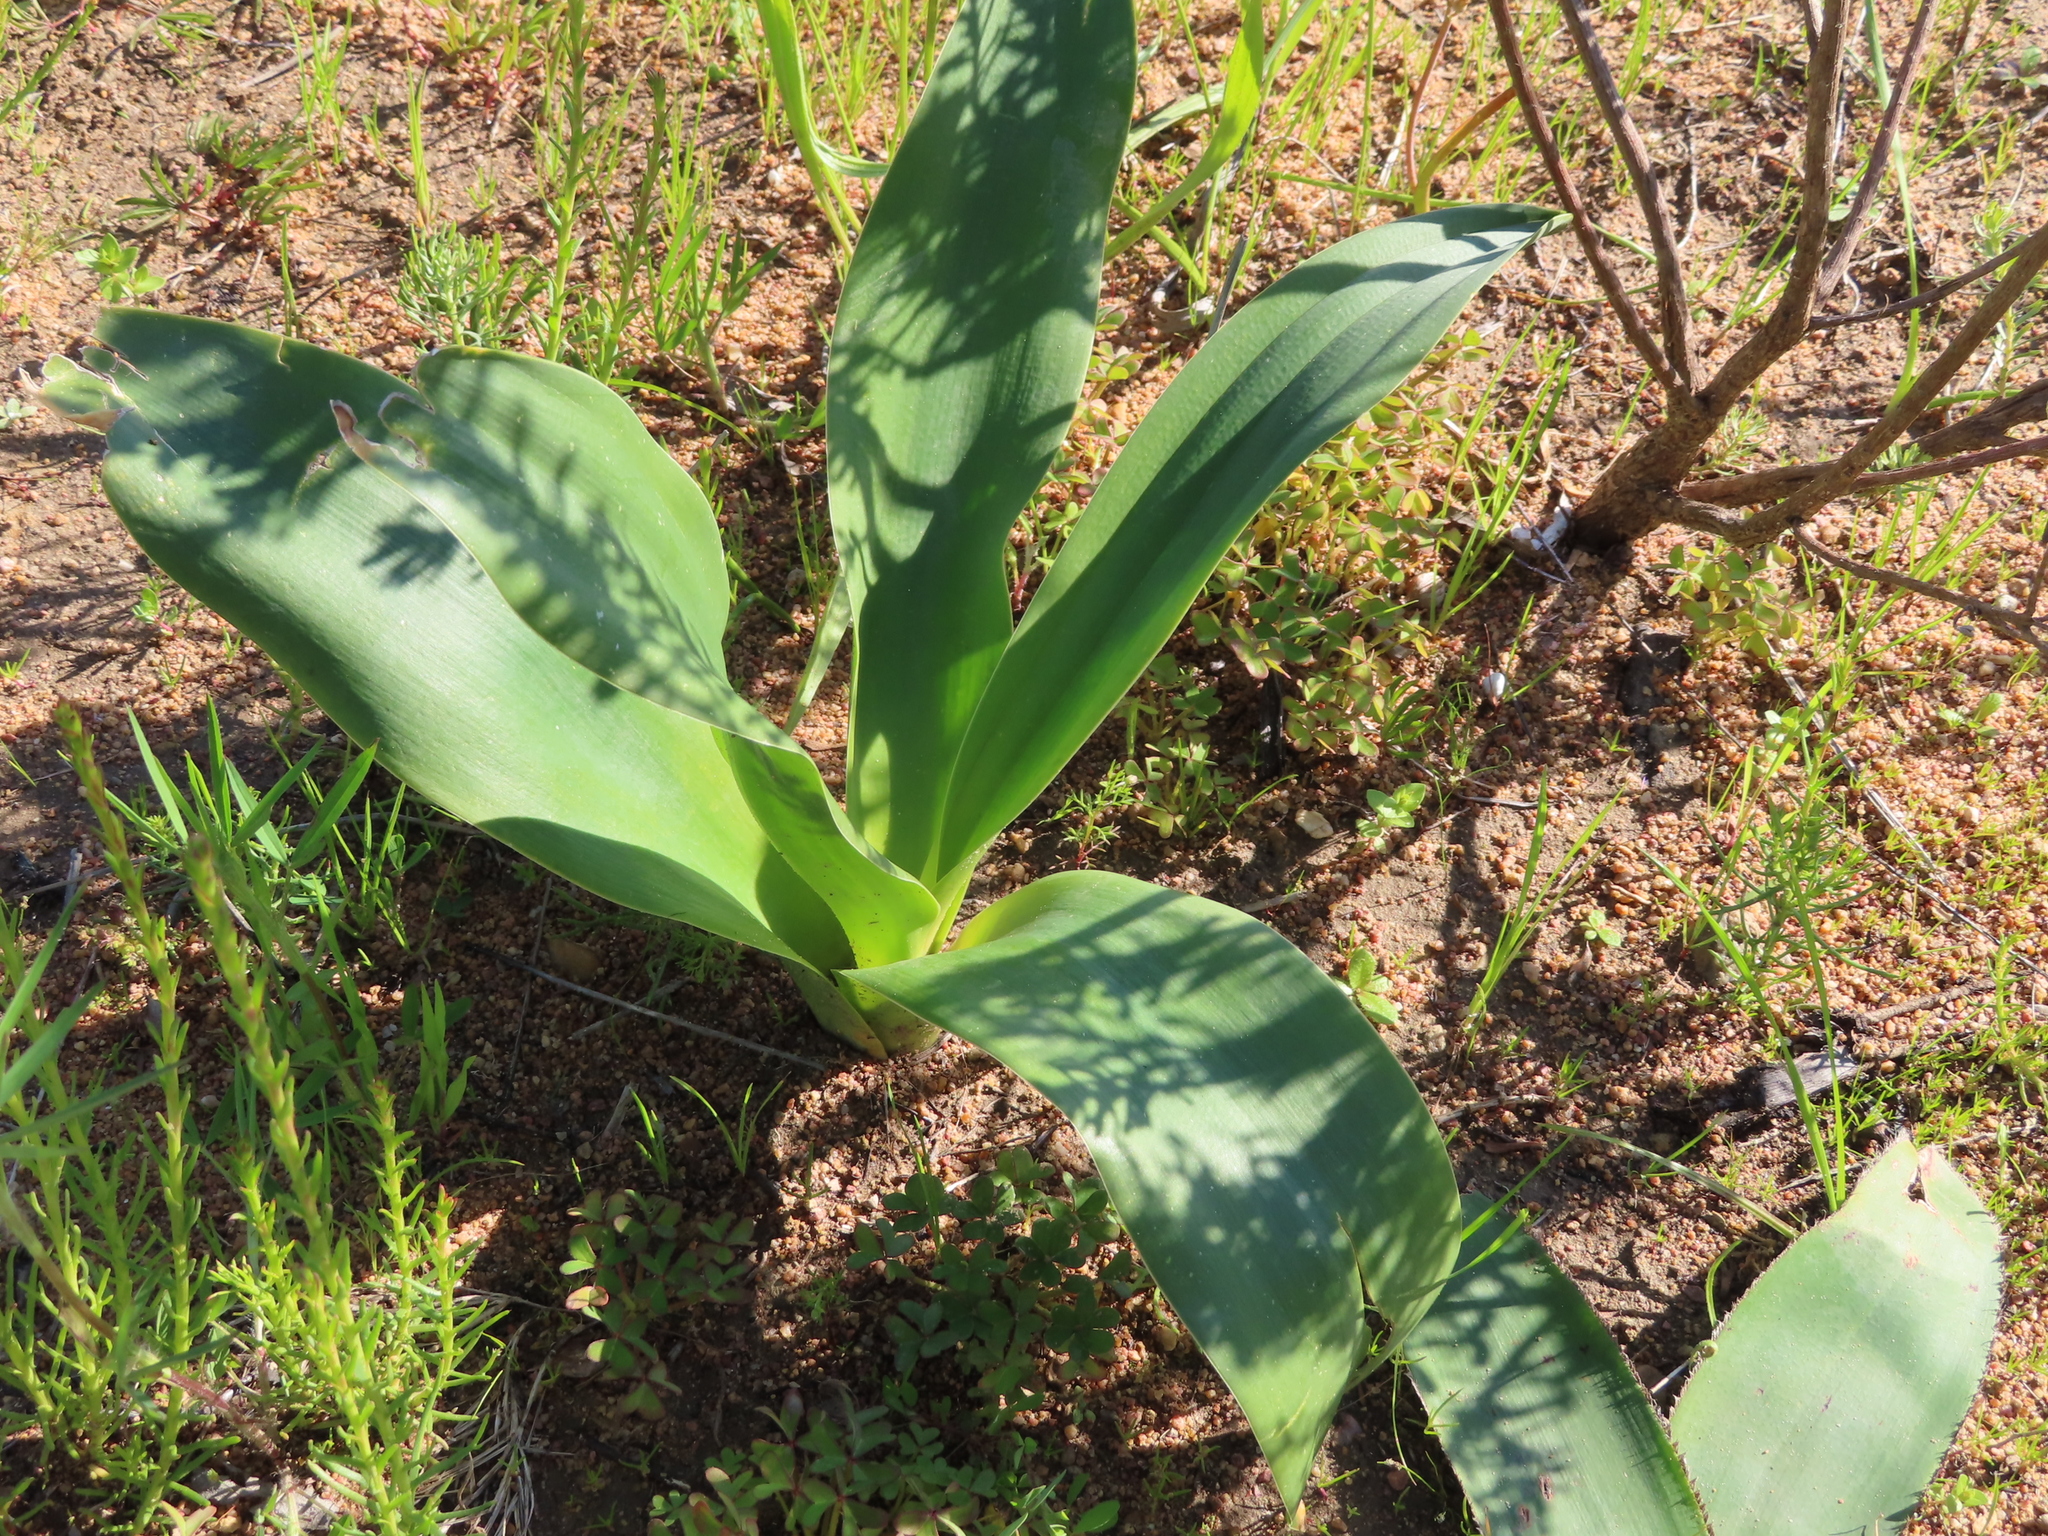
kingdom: Plantae
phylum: Tracheophyta
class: Liliopsida
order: Asparagales
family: Asparagaceae
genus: Drimia
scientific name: Drimia capensis
